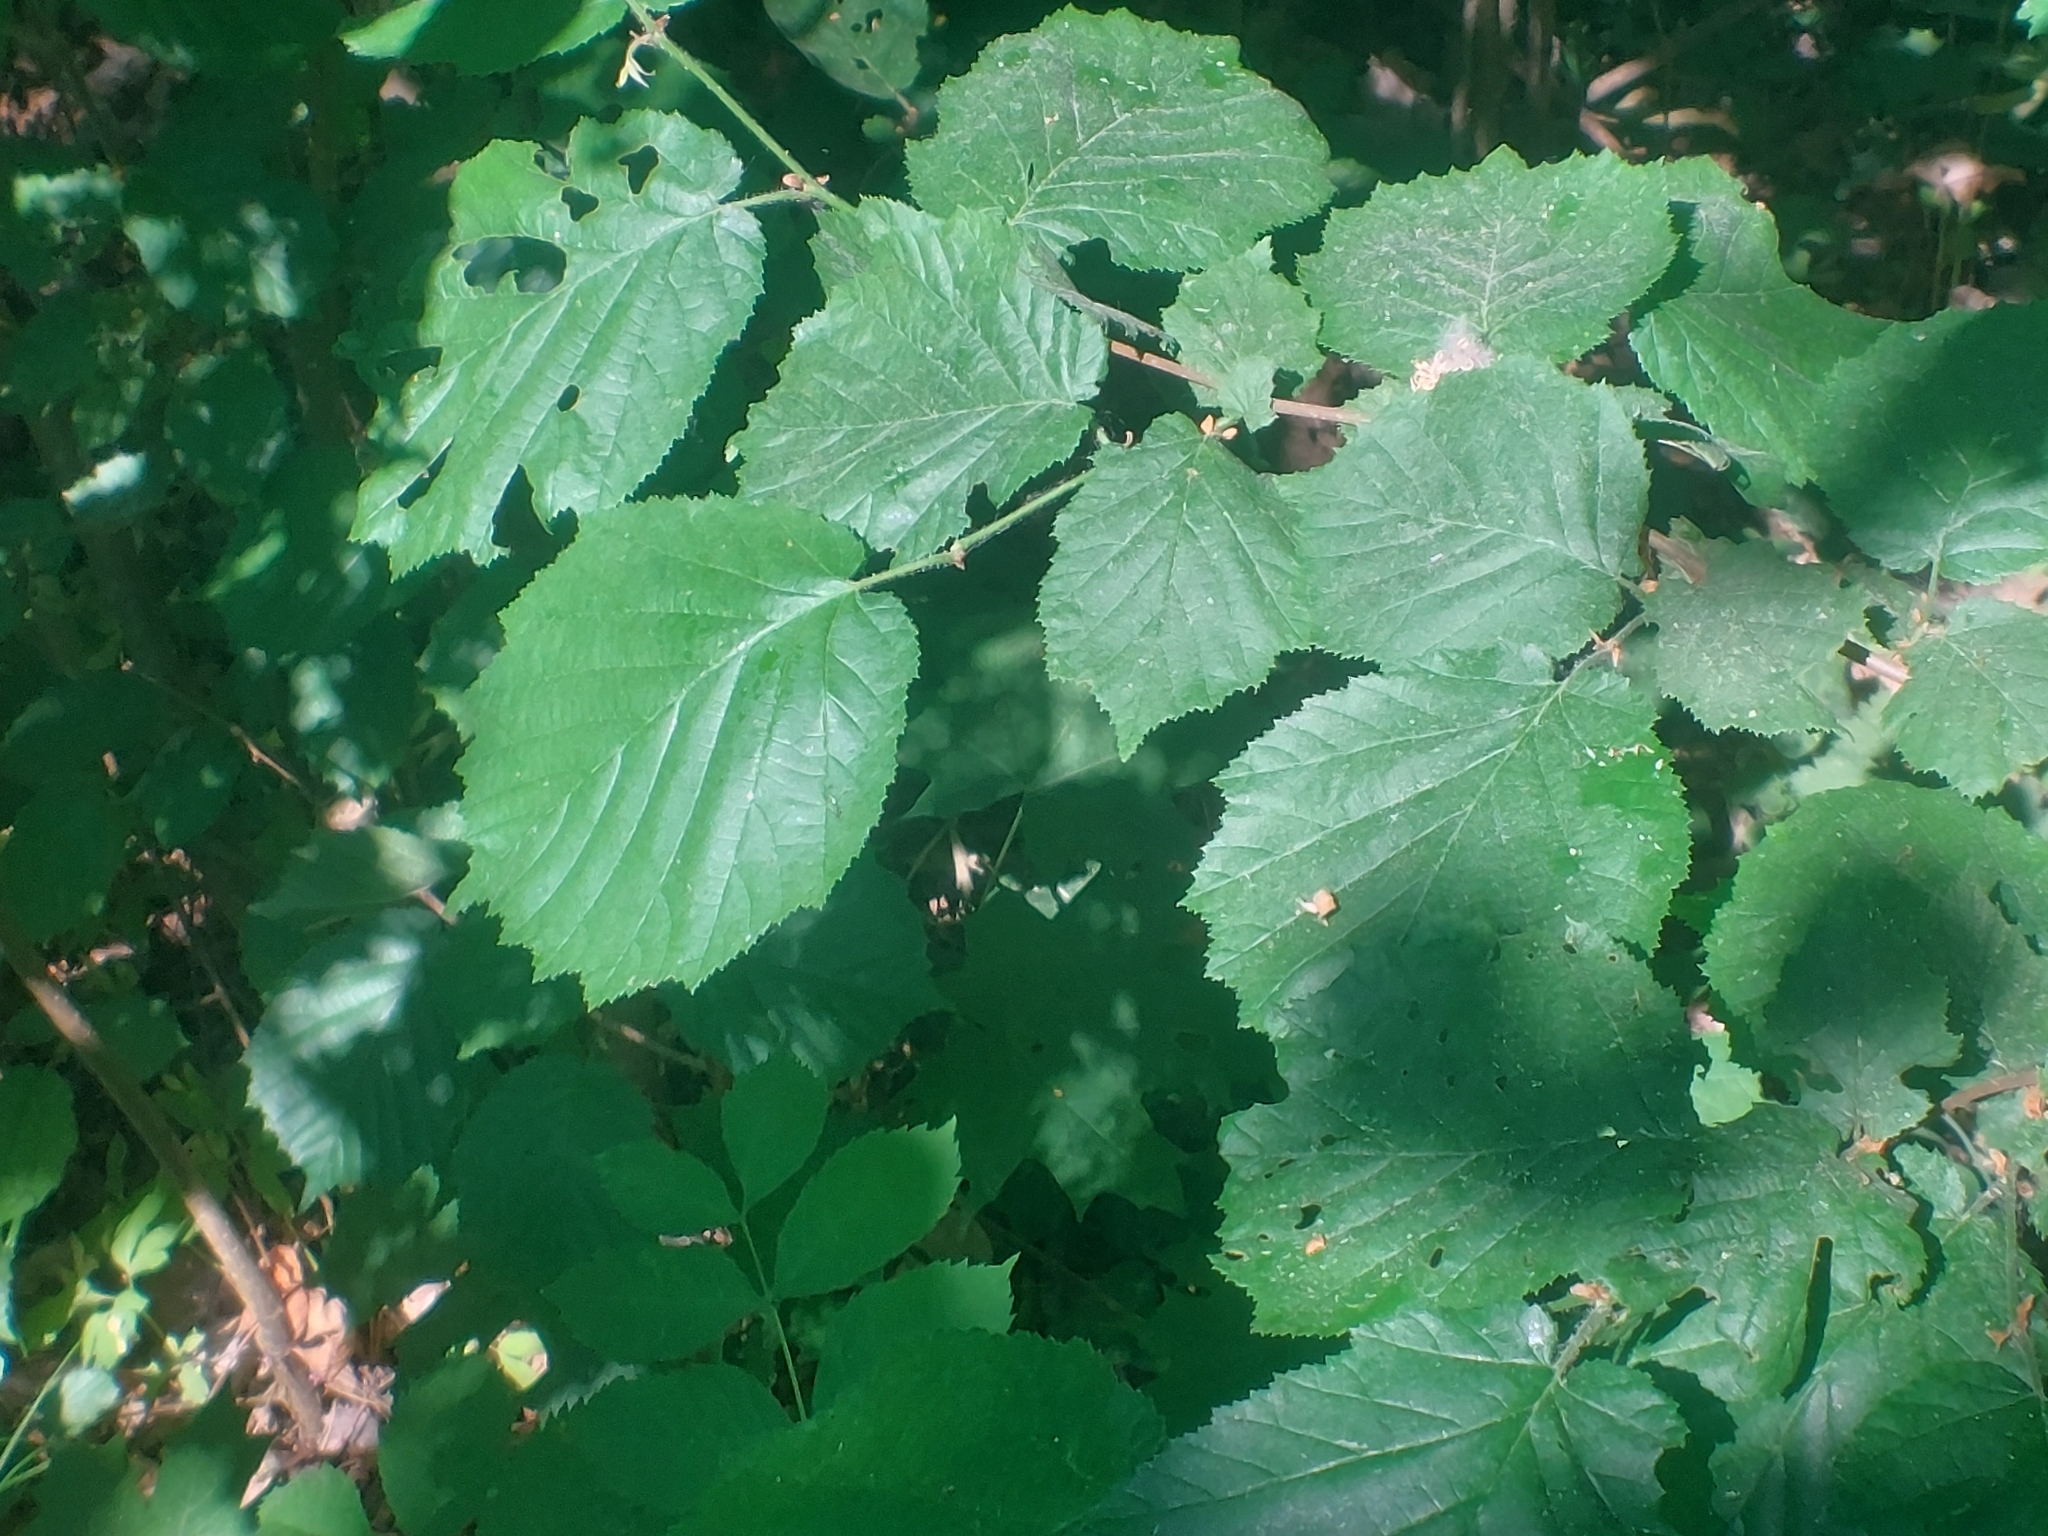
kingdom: Plantae
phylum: Tracheophyta
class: Magnoliopsida
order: Fagales
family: Betulaceae
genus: Corylus
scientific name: Corylus avellana
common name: European hazel
